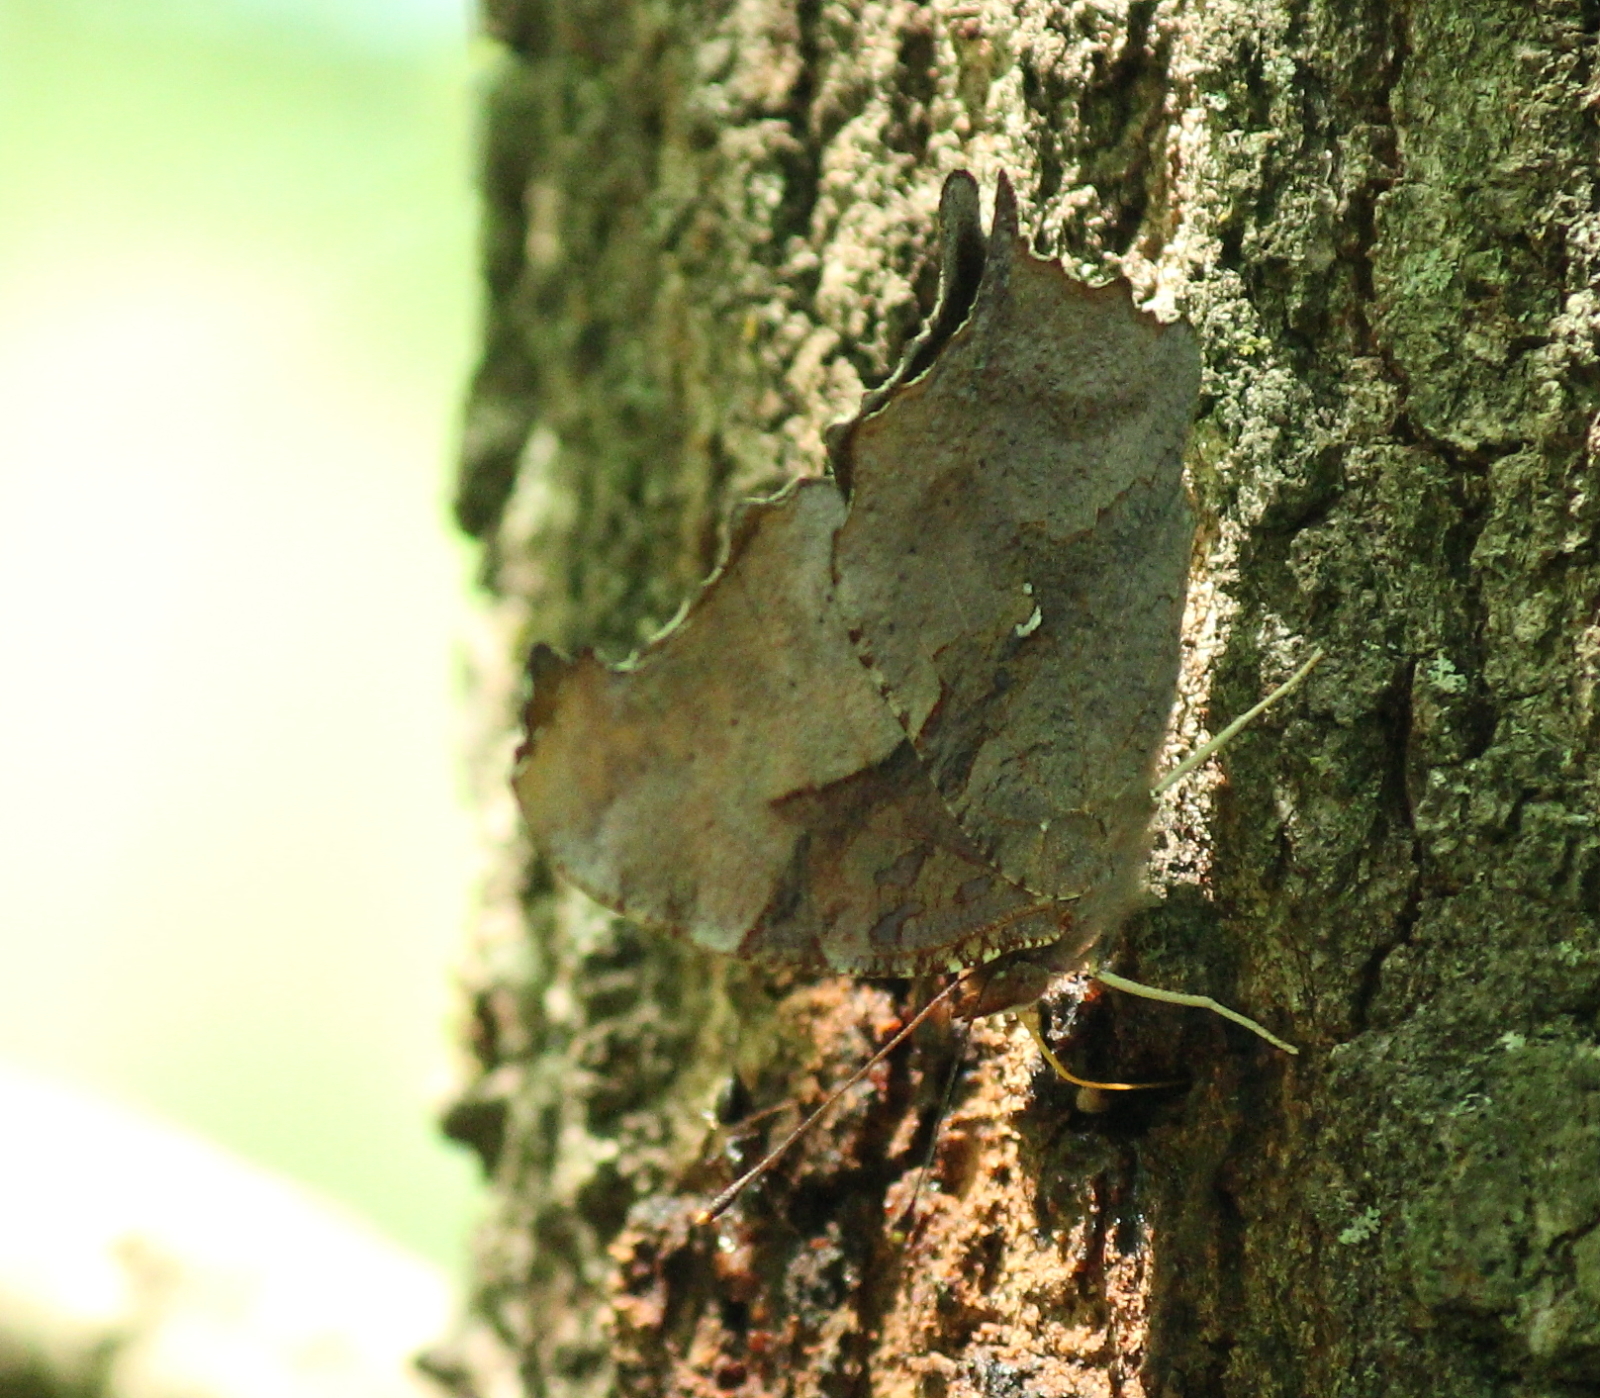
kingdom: Animalia
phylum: Arthropoda
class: Insecta
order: Lepidoptera
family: Nymphalidae
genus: Polygonia
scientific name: Polygonia interrogationis
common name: Question mark
